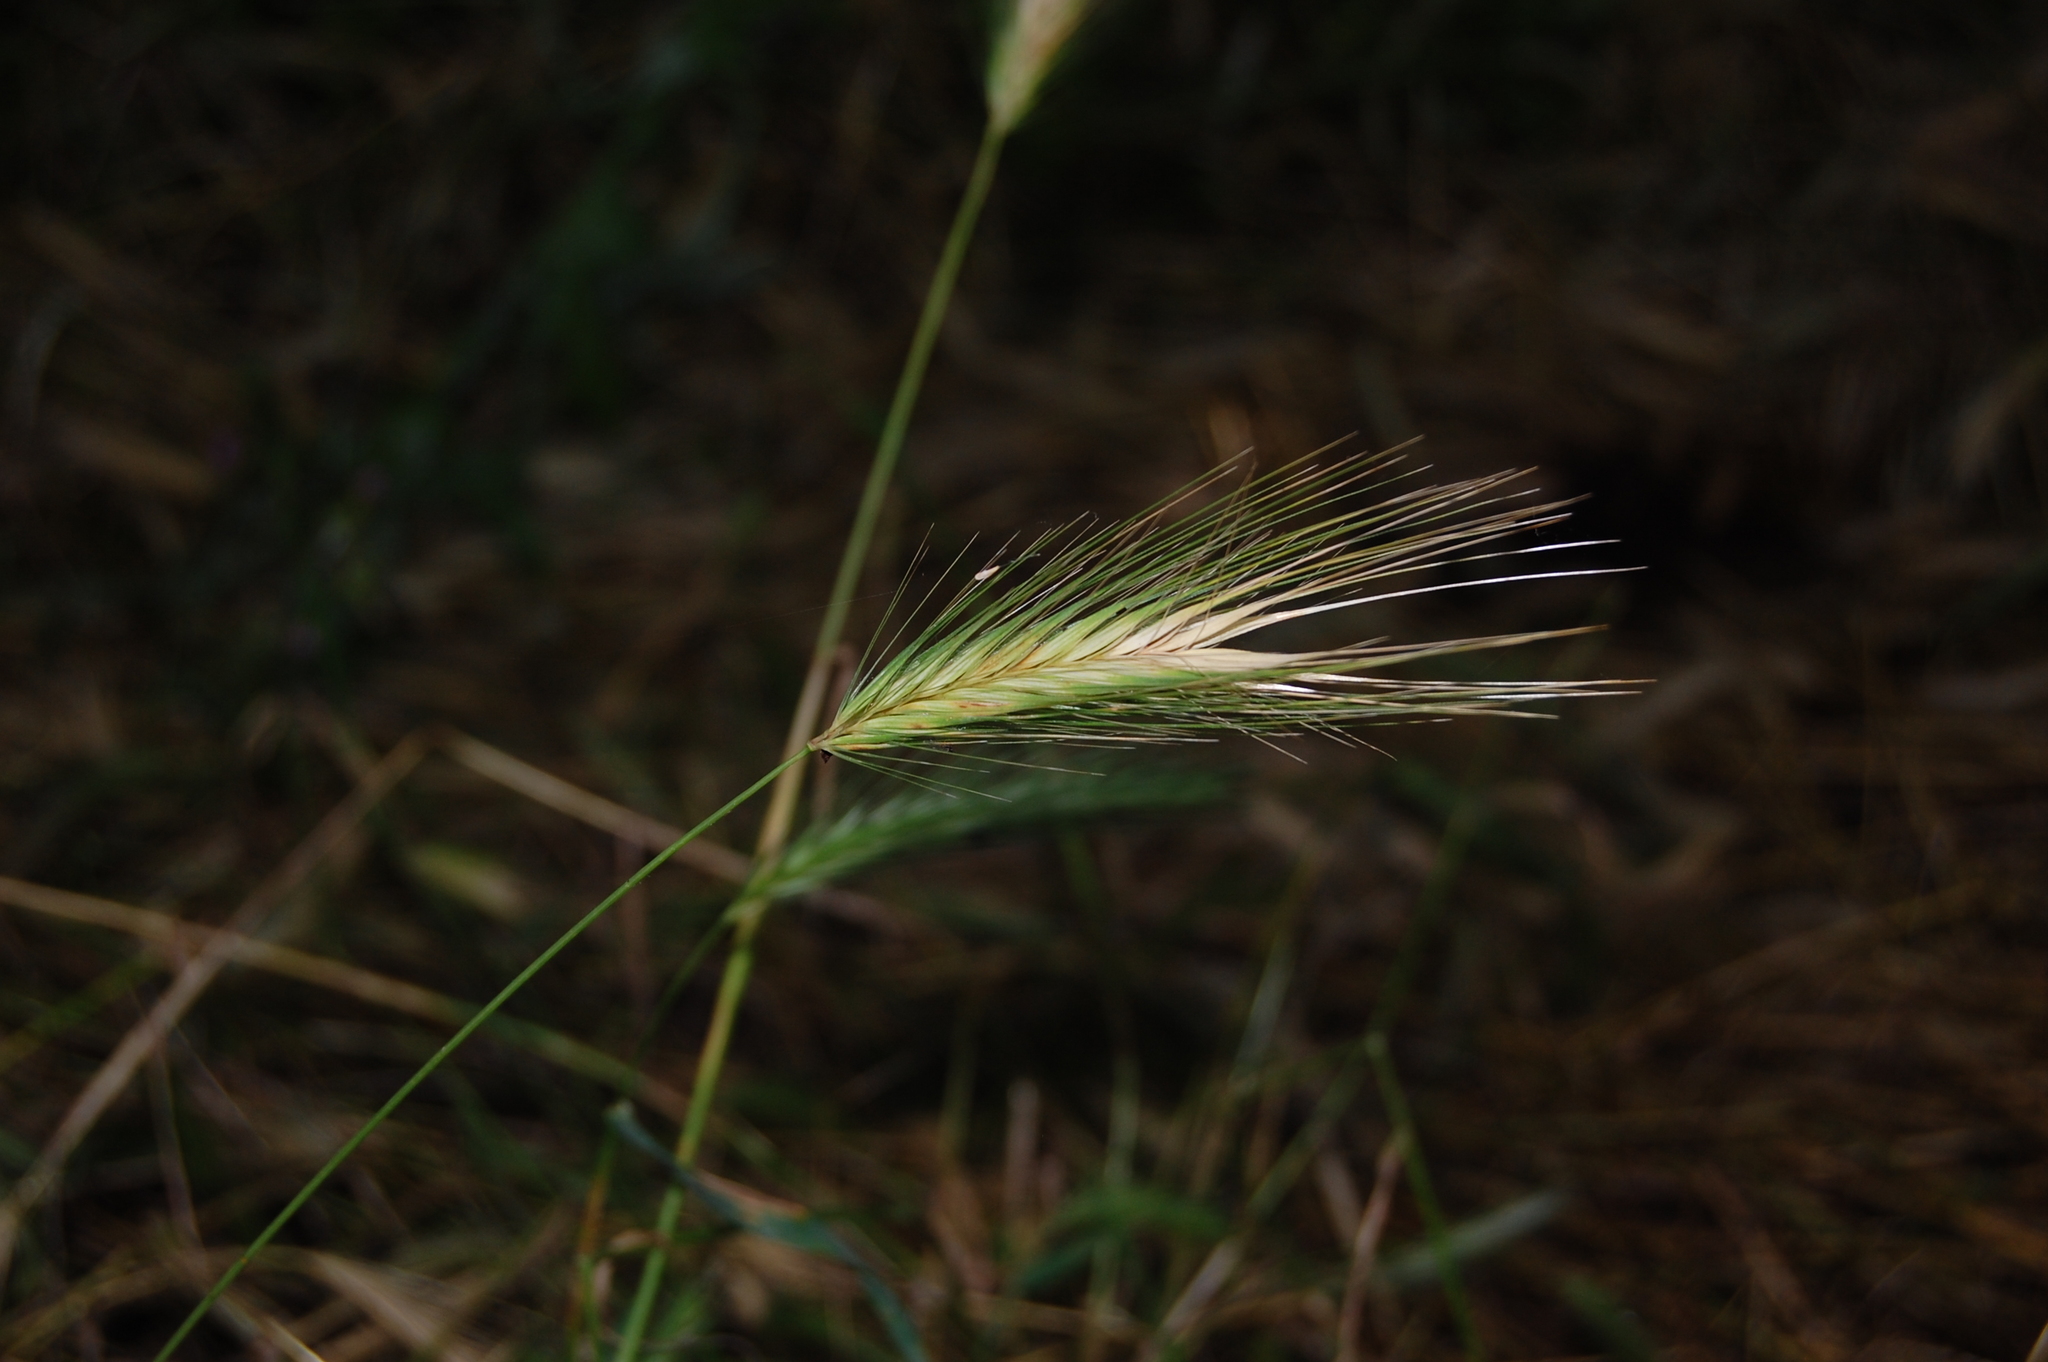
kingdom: Plantae
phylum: Tracheophyta
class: Liliopsida
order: Poales
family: Poaceae
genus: Hordeum
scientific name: Hordeum murinum
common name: Wall barley
